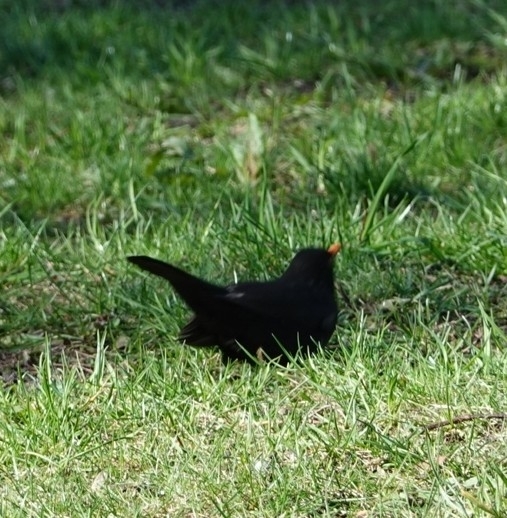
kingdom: Animalia
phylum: Chordata
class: Aves
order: Passeriformes
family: Turdidae
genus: Turdus
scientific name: Turdus merula
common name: Common blackbird
